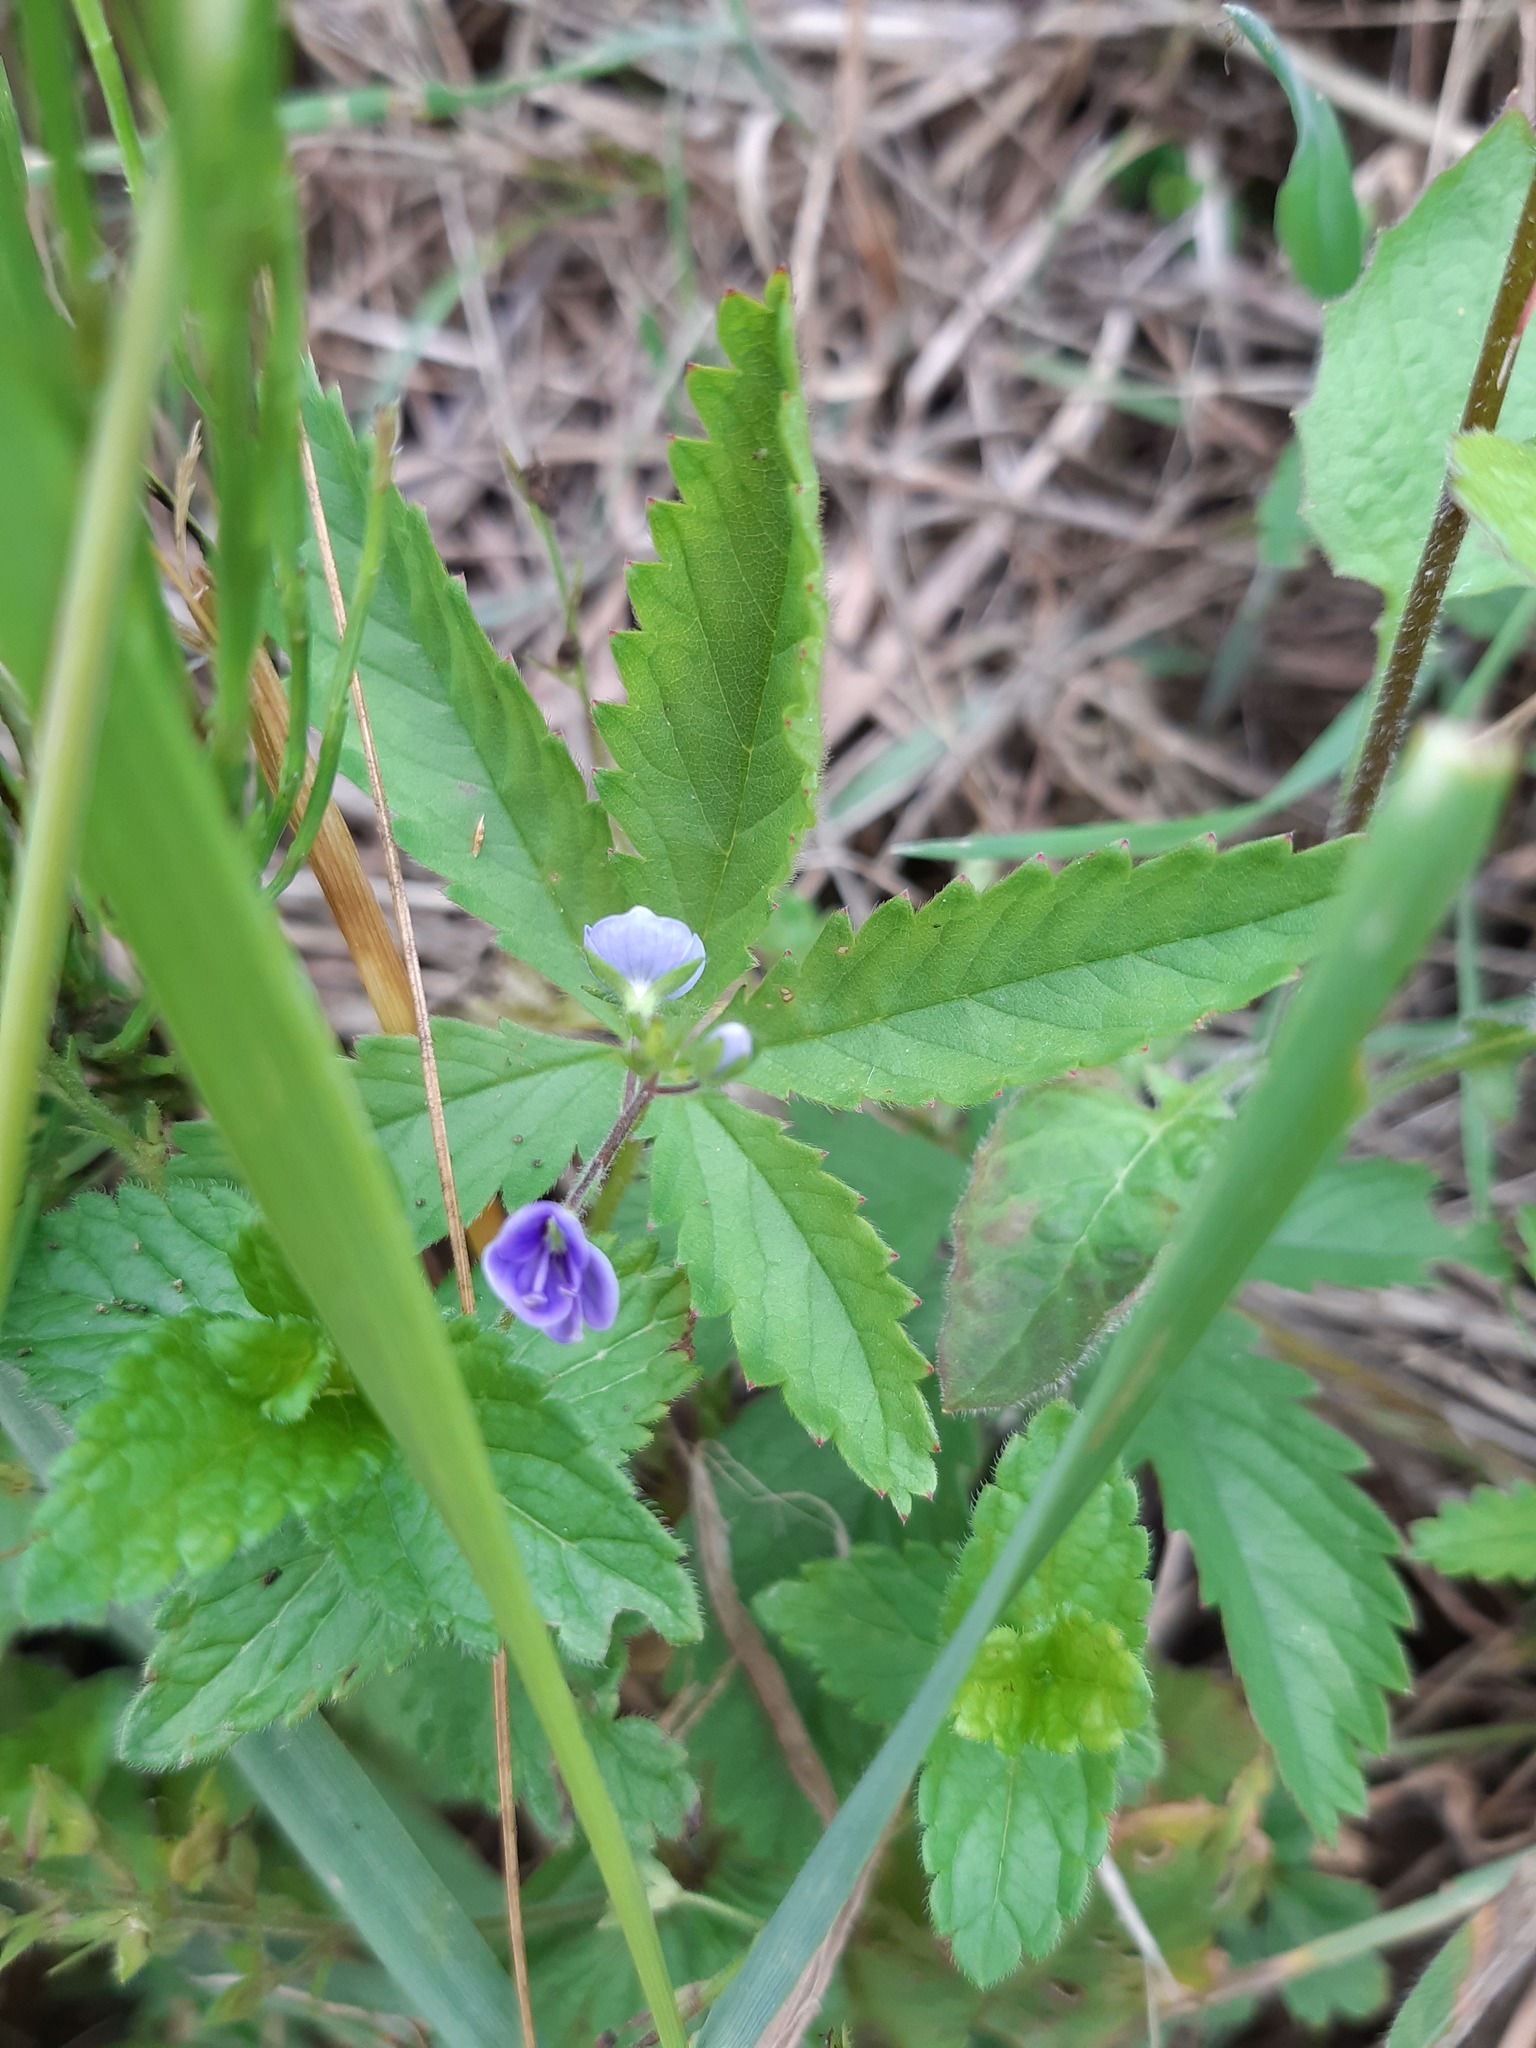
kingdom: Plantae
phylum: Tracheophyta
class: Magnoliopsida
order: Lamiales
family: Plantaginaceae
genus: Veronica
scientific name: Veronica chamaedrys
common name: Germander speedwell
